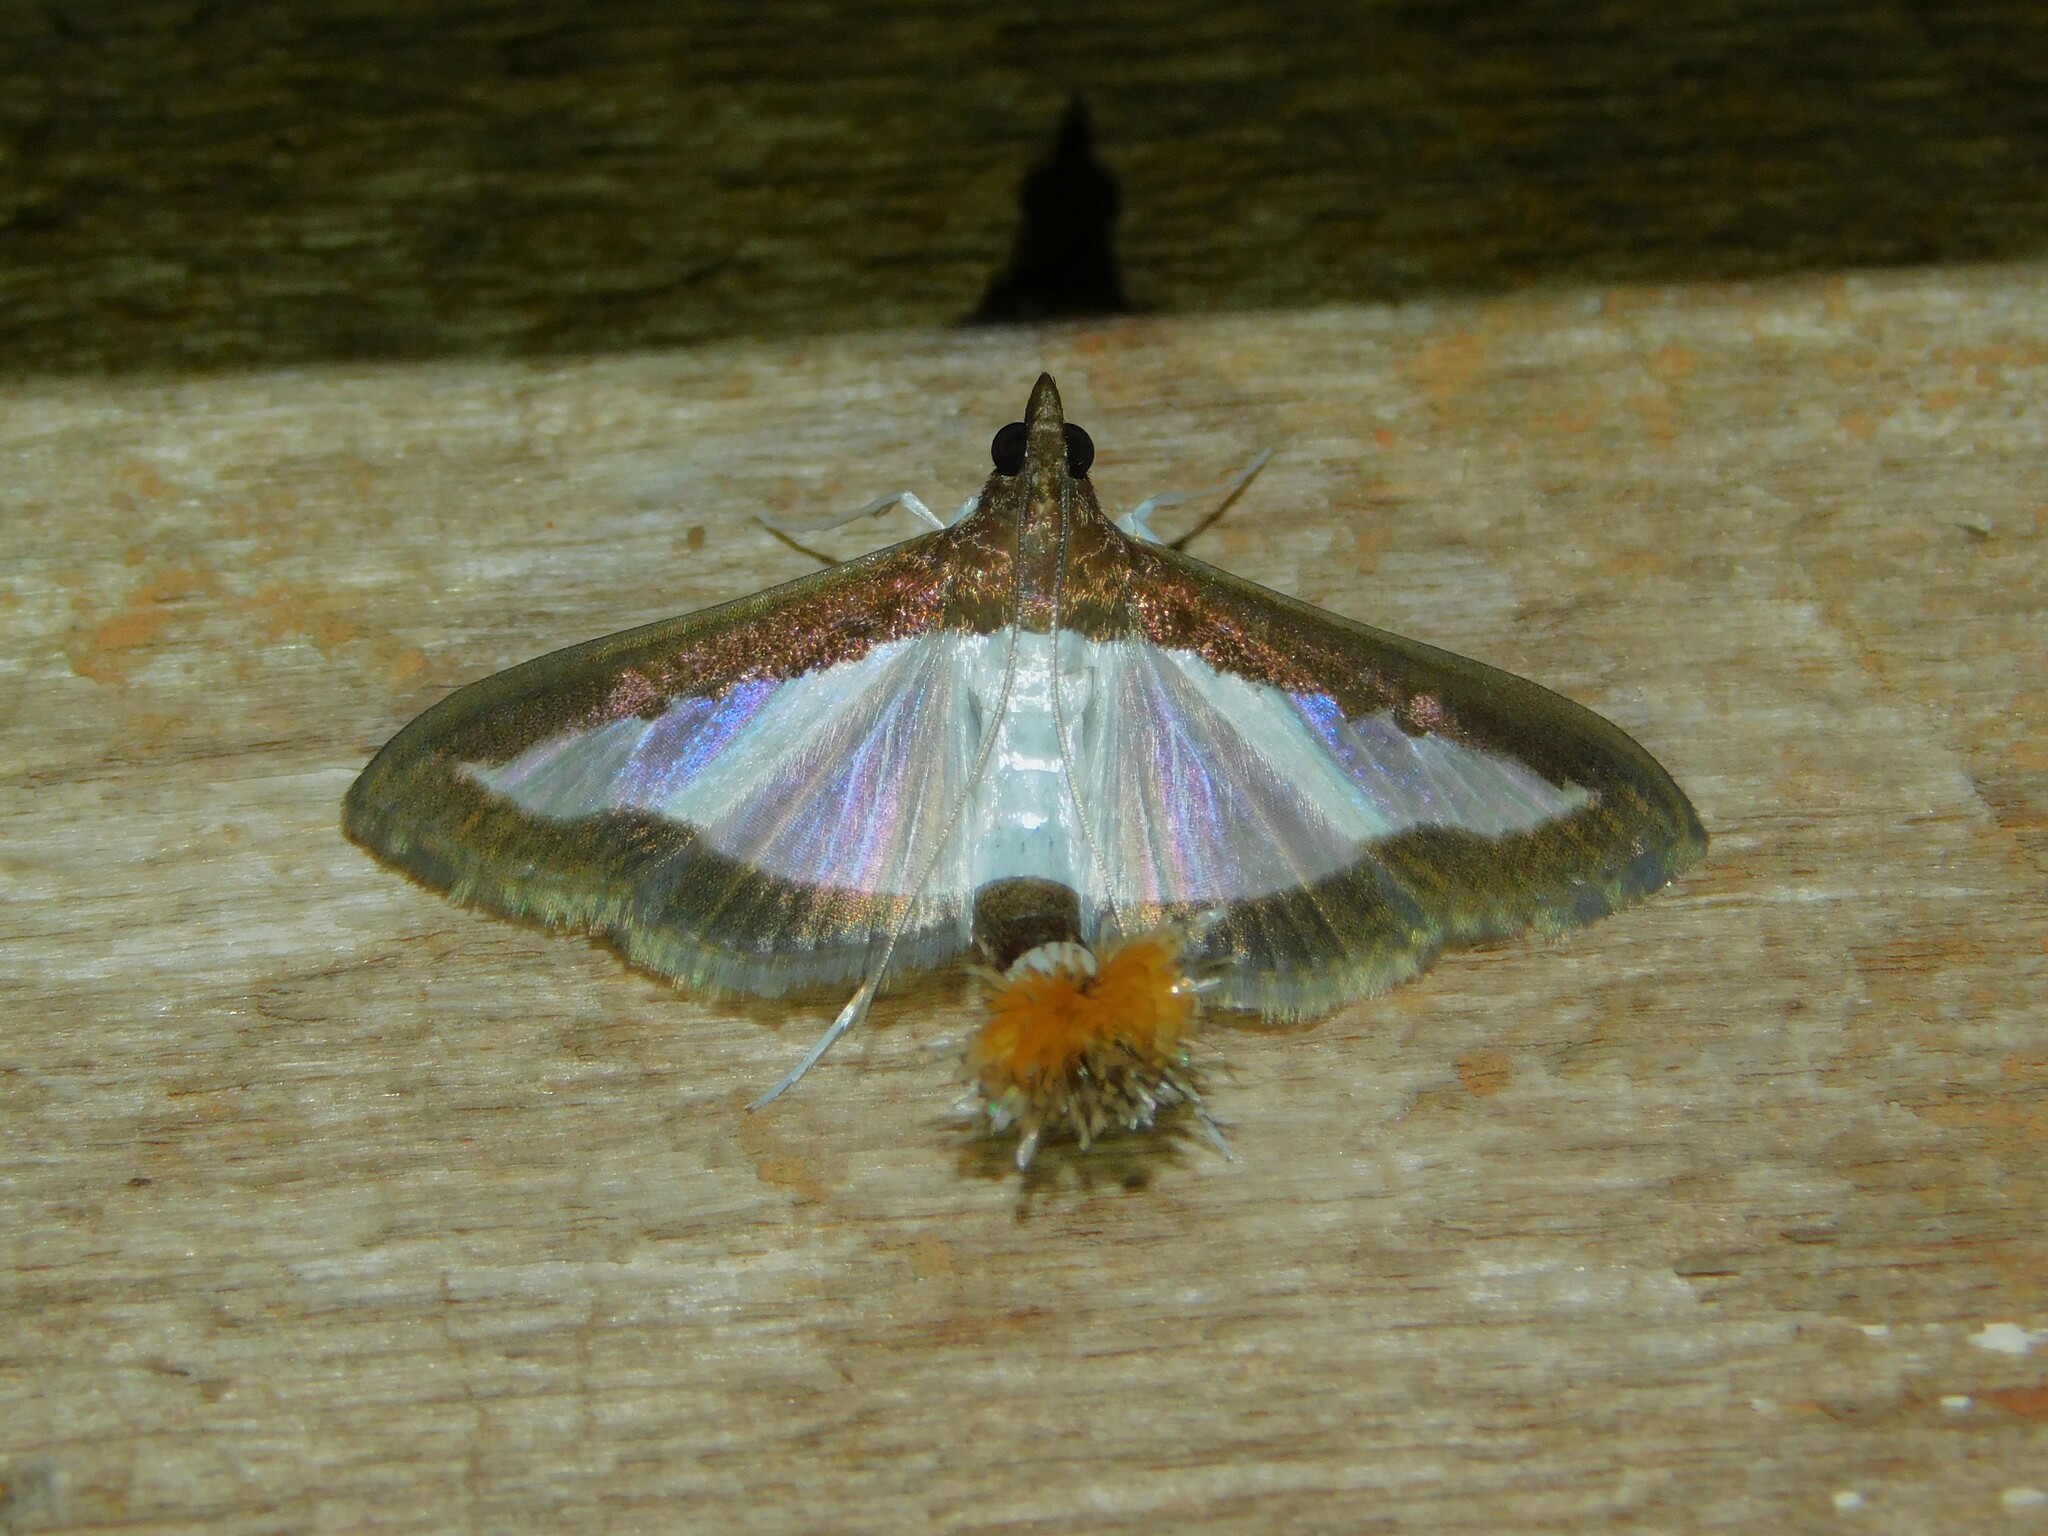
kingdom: Animalia
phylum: Arthropoda
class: Insecta
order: Lepidoptera
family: Crambidae
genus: Diaphania
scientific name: Diaphania indica
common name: Cucumber moth
